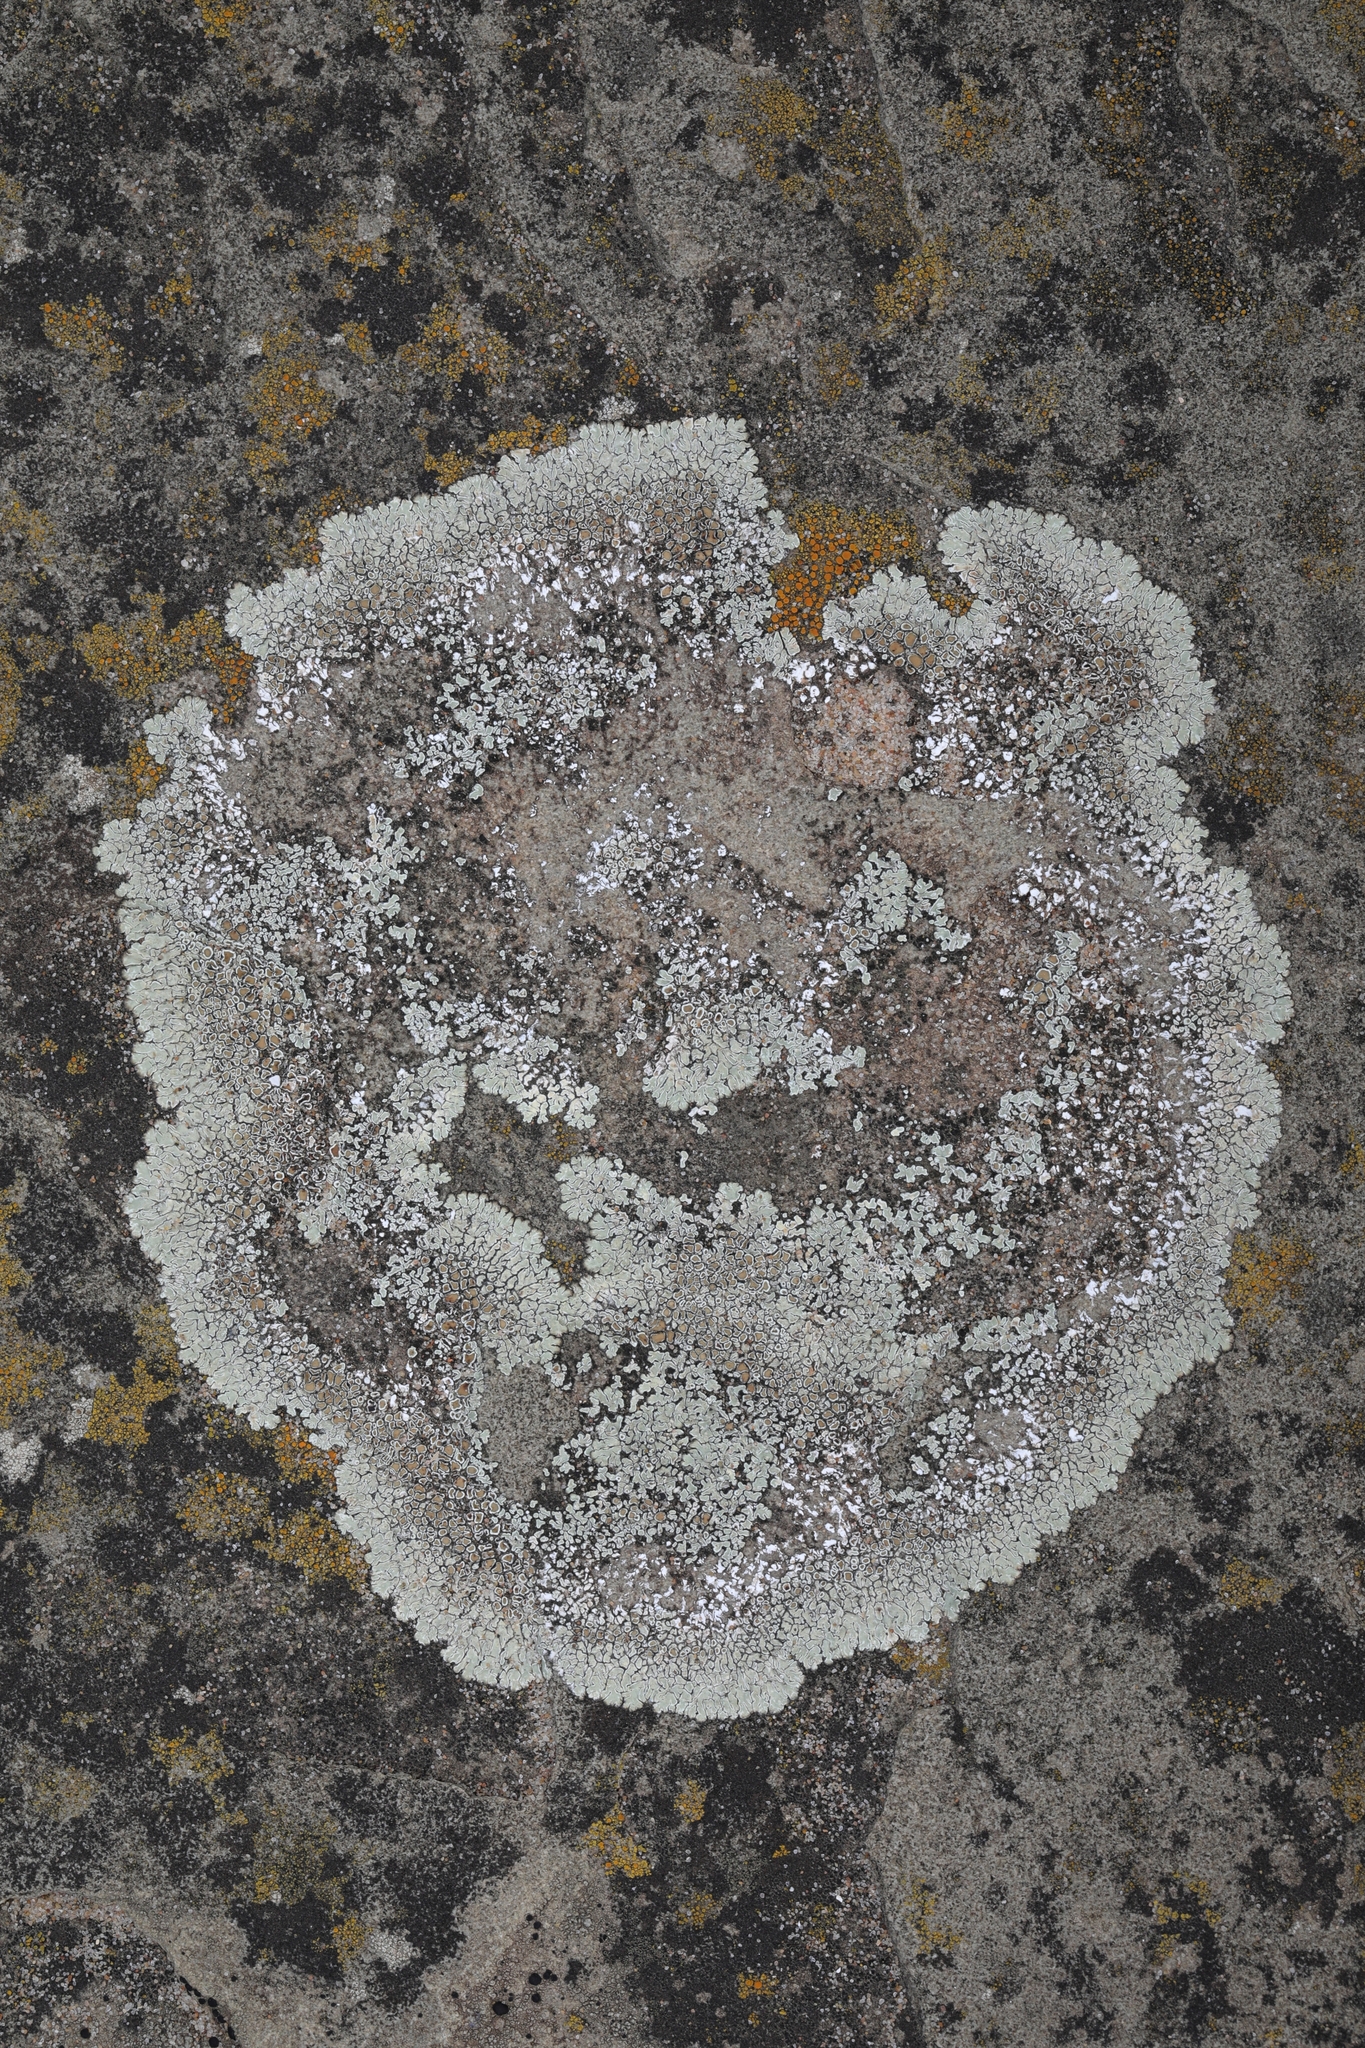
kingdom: Fungi
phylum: Ascomycota
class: Lecanoromycetes
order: Lecanorales
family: Lecanoraceae
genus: Protoparmeliopsis
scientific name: Protoparmeliopsis muralis
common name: Stonewall rim lichen
